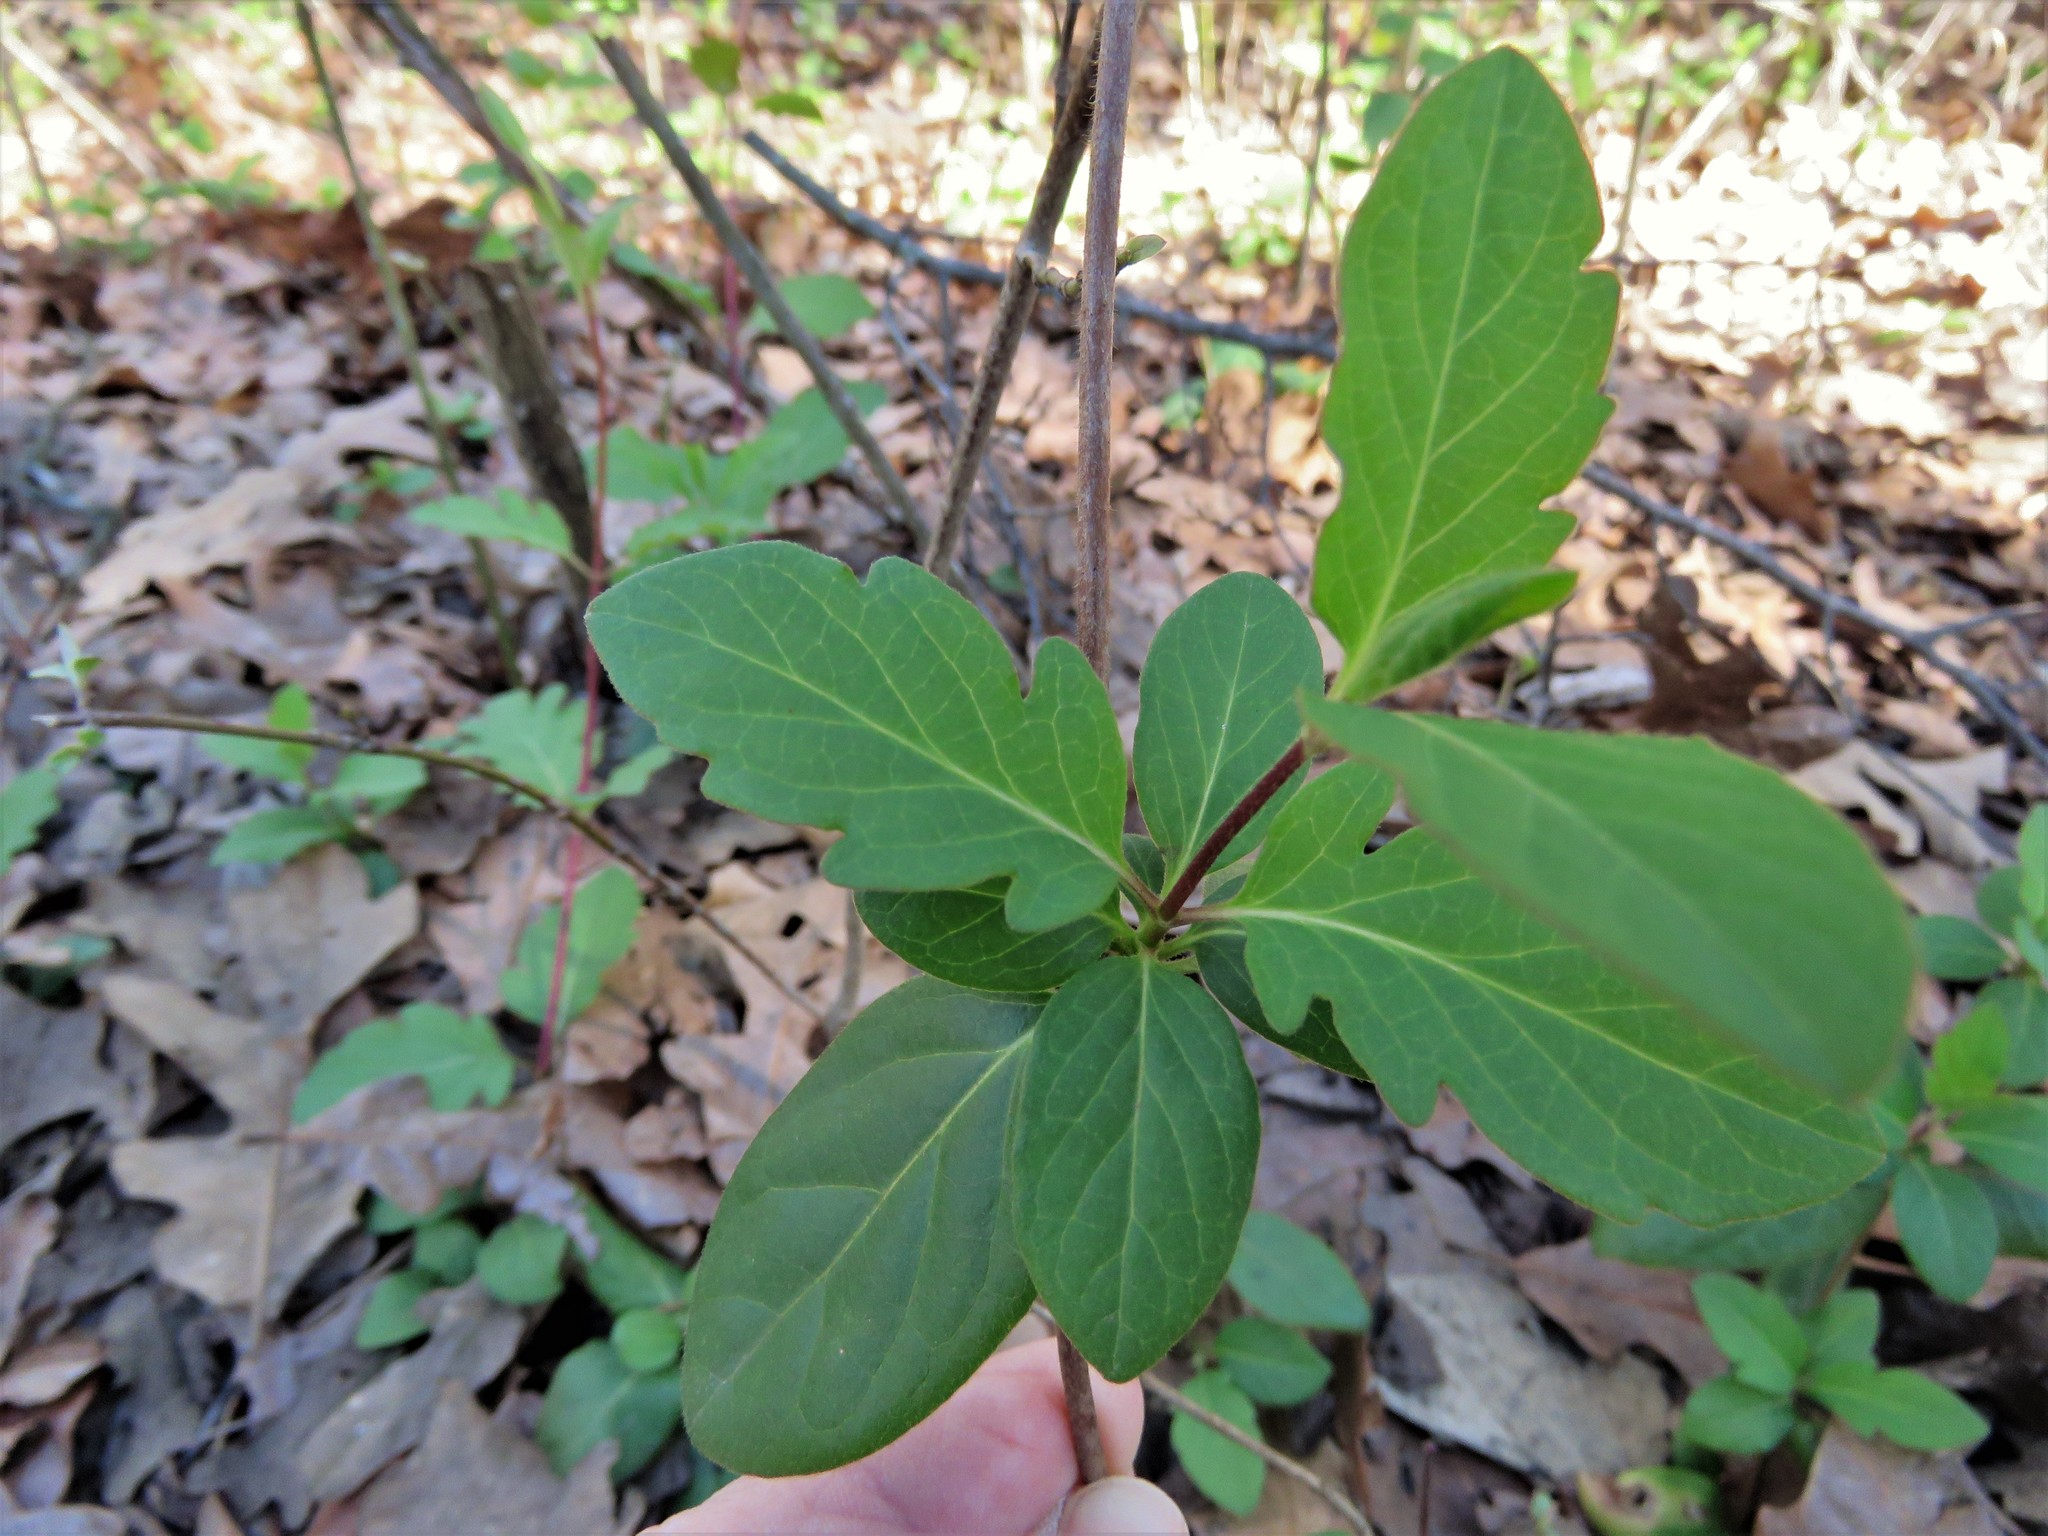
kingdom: Plantae
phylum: Tracheophyta
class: Magnoliopsida
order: Dipsacales
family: Caprifoliaceae
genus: Lonicera
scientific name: Lonicera japonica
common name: Japanese honeysuckle
